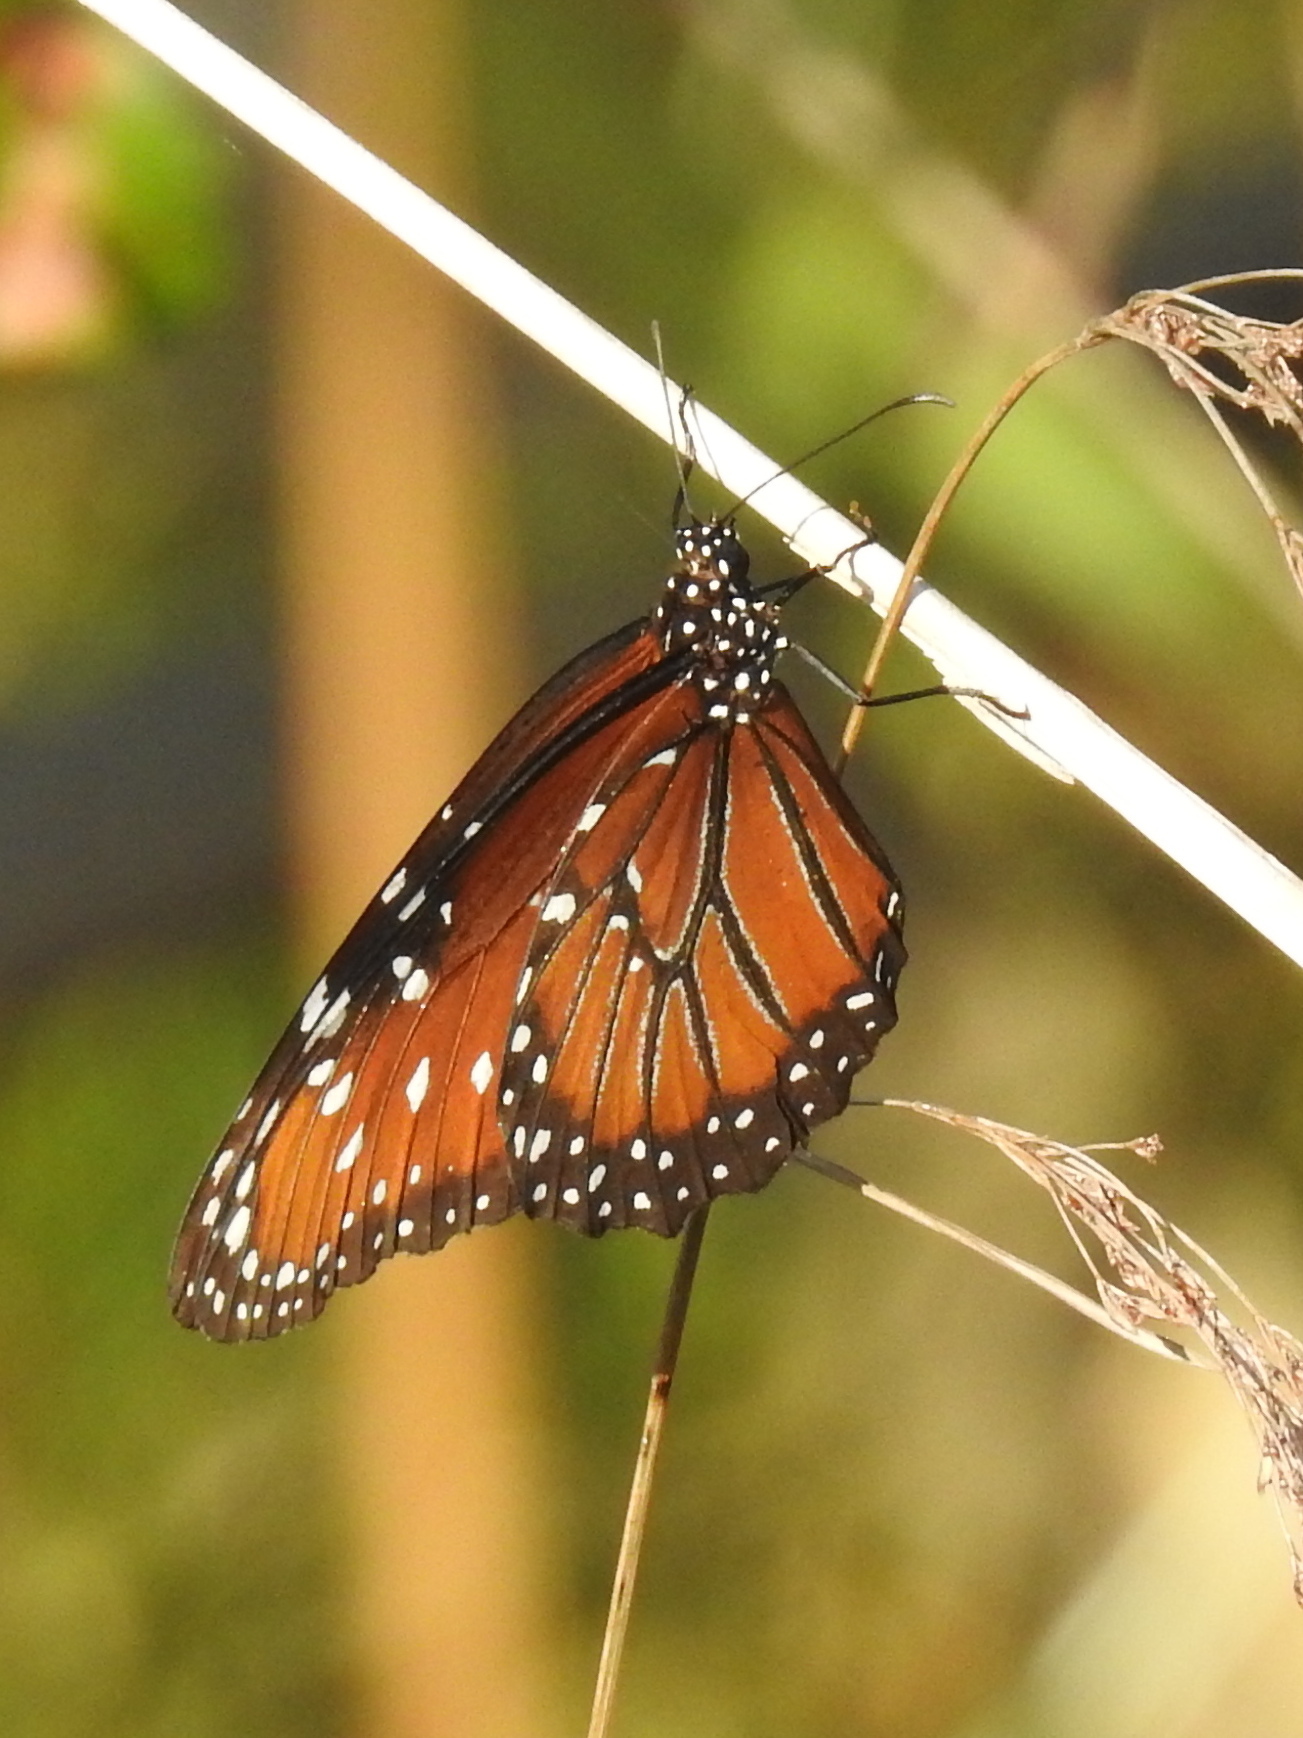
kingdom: Animalia
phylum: Arthropoda
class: Insecta
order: Lepidoptera
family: Nymphalidae
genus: Danaus
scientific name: Danaus gilippus
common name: Queen
